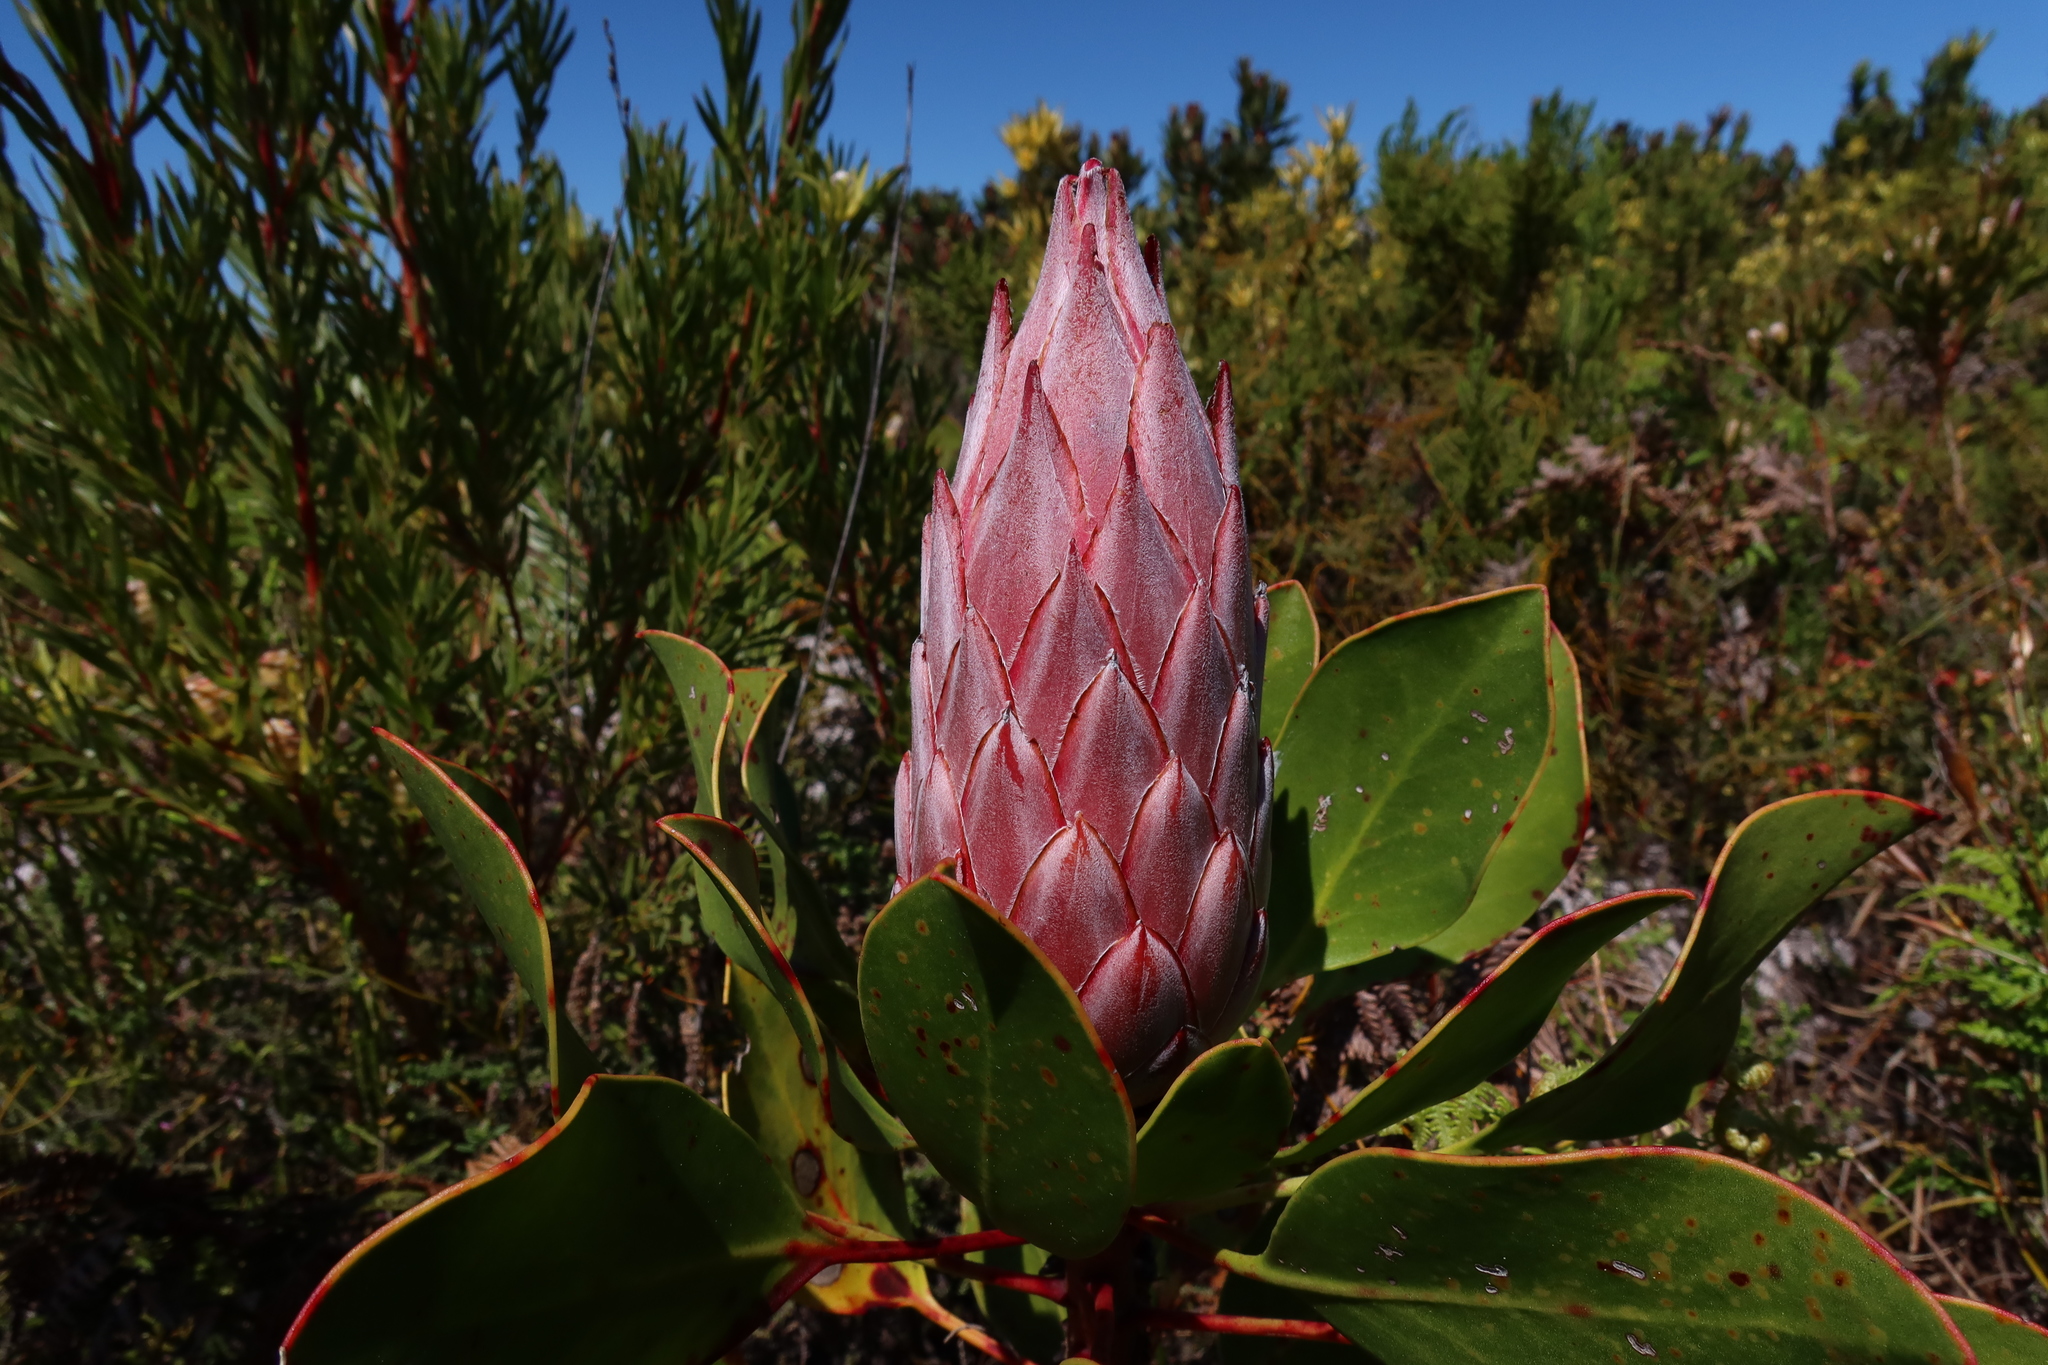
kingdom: Plantae
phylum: Tracheophyta
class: Magnoliopsida
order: Proteales
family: Proteaceae
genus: Protea
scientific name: Protea cynaroides
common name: King protea
